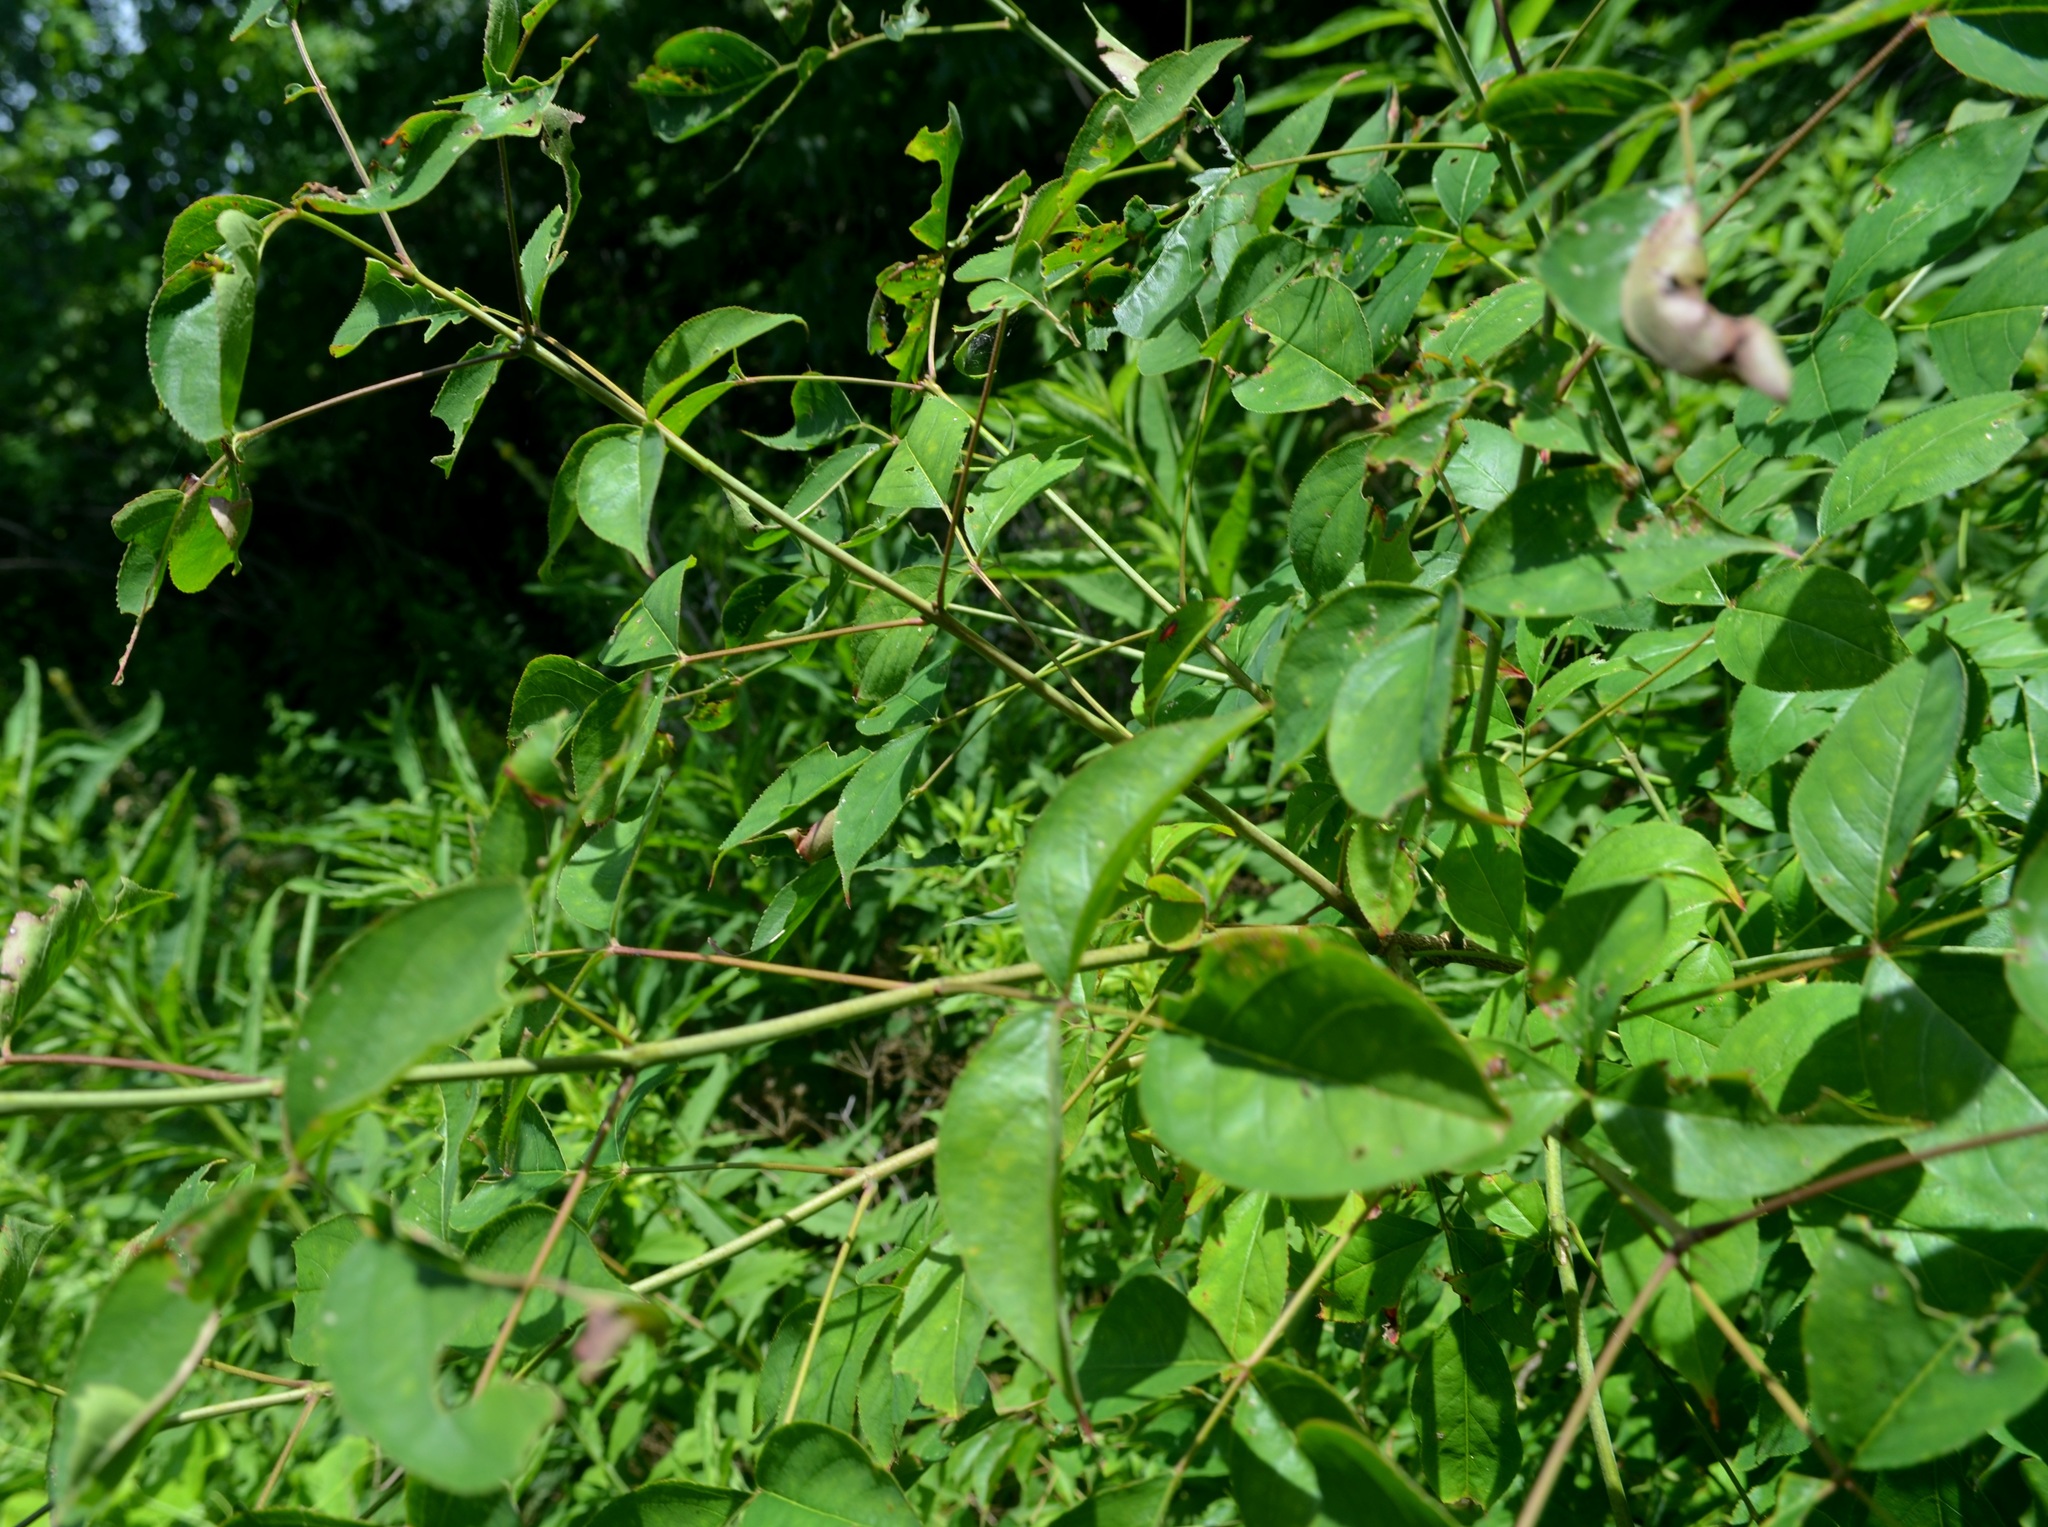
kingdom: Plantae
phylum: Tracheophyta
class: Magnoliopsida
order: Crossosomatales
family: Staphyleaceae
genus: Staphylea
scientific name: Staphylea trifolia
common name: American bladdernut
